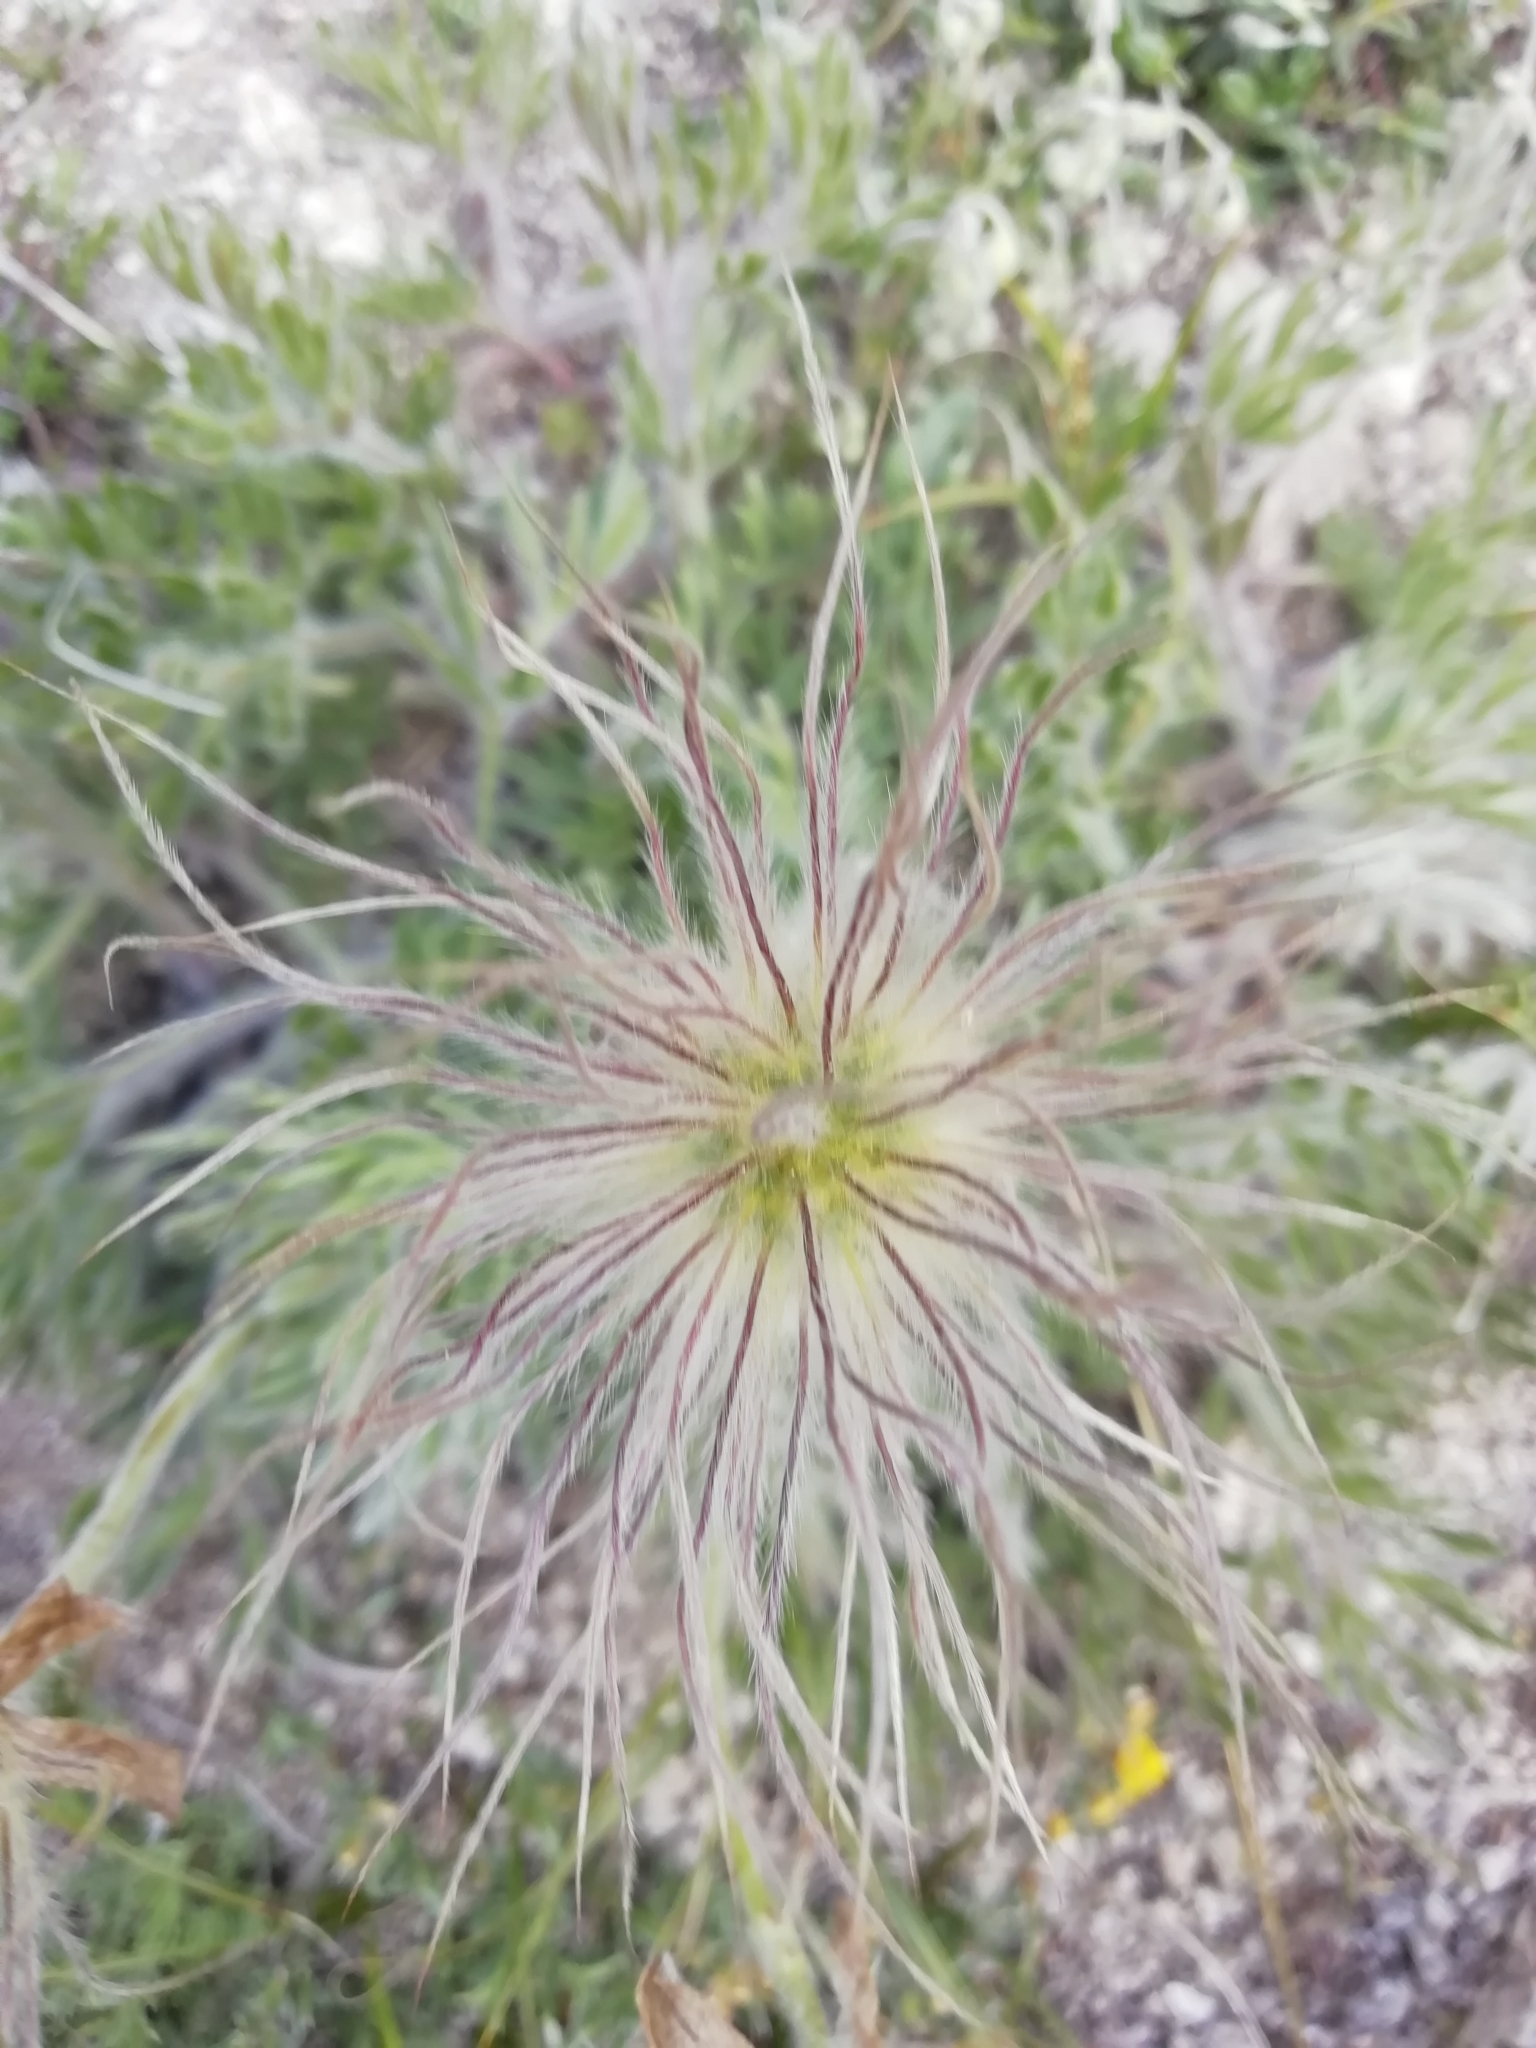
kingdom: Plantae
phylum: Tracheophyta
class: Magnoliopsida
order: Ranunculales
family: Ranunculaceae
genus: Pulsatilla
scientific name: Pulsatilla halleri
